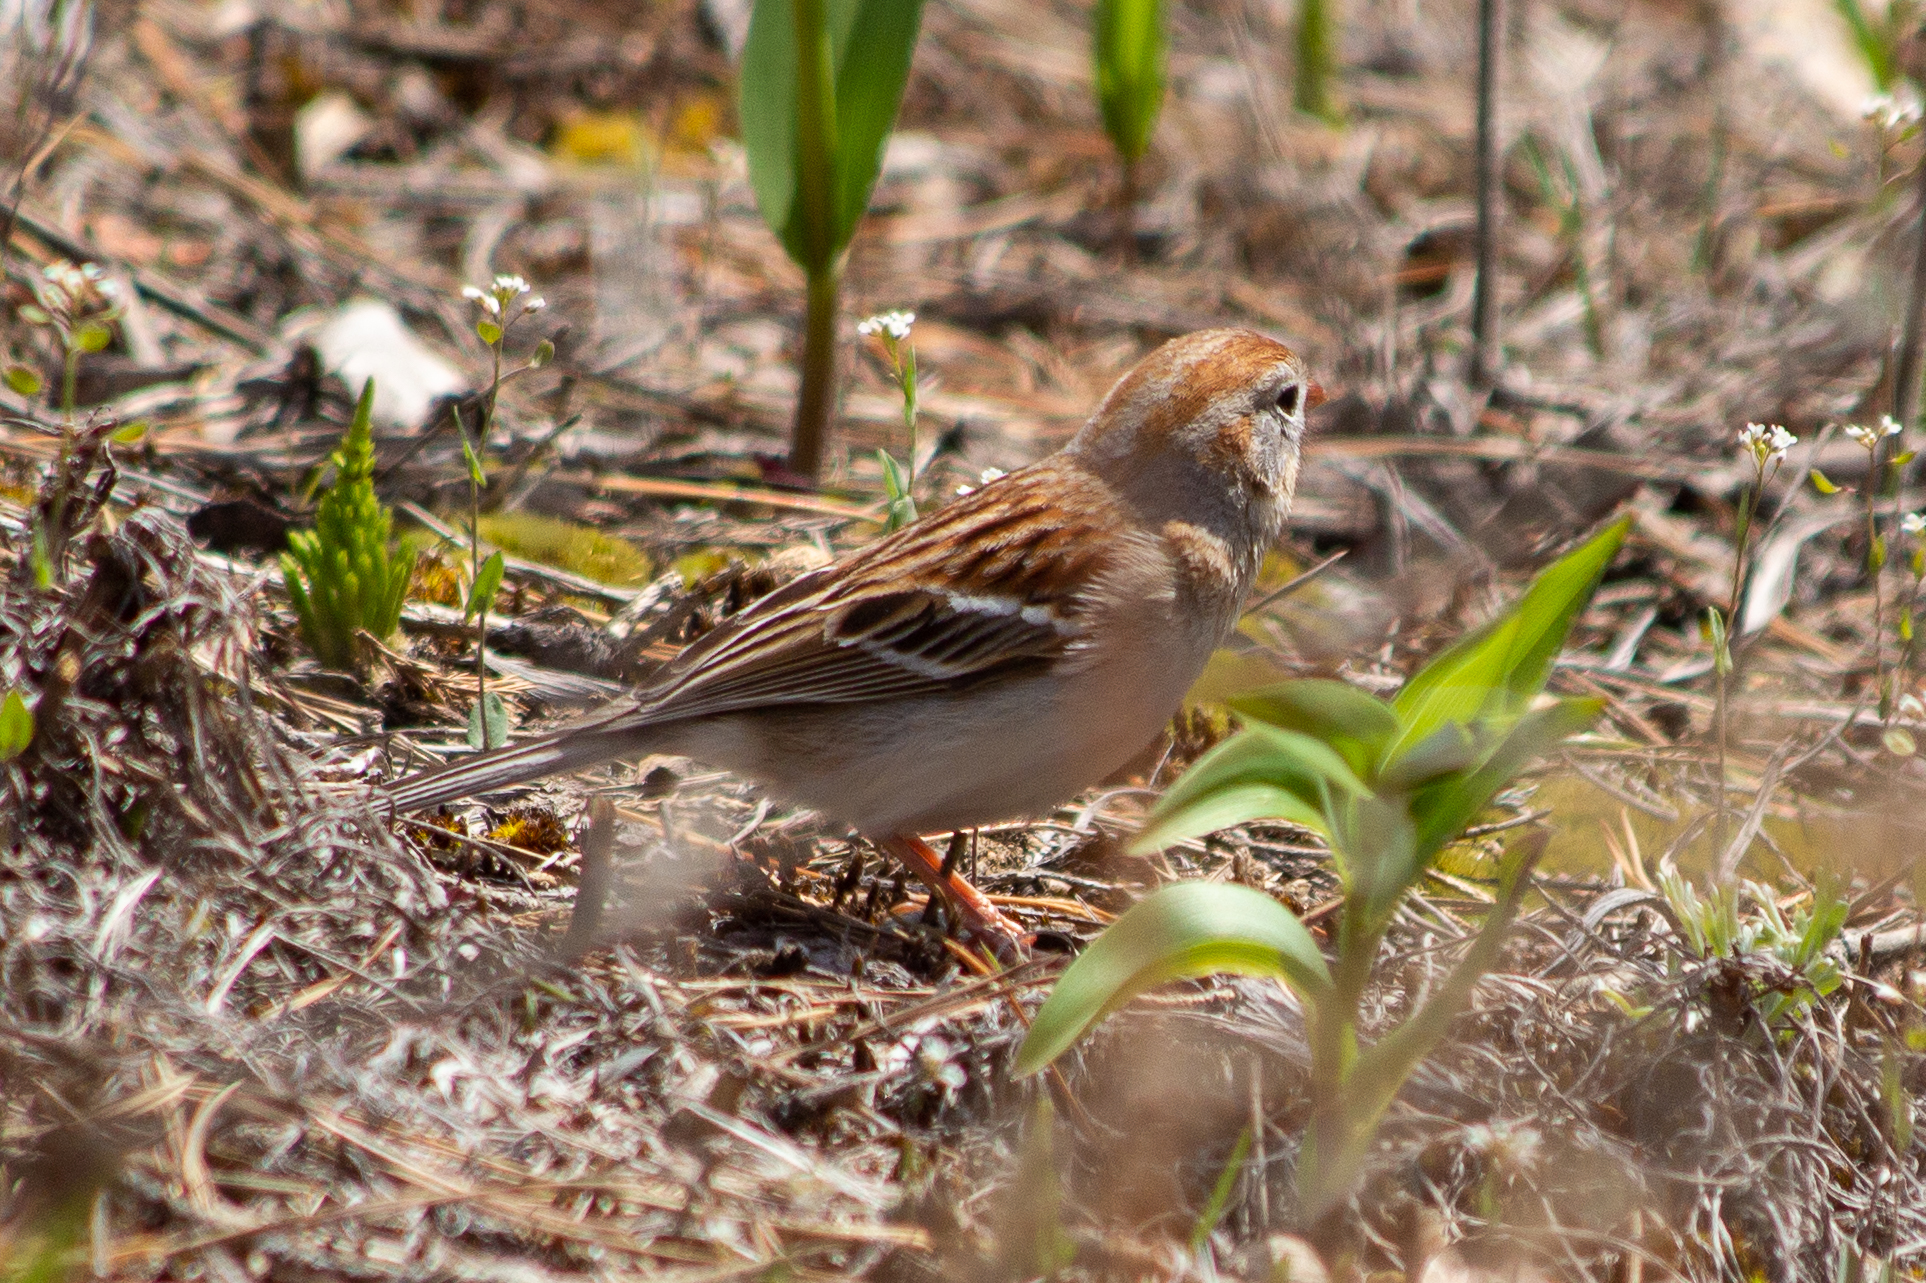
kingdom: Animalia
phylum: Chordata
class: Aves
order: Passeriformes
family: Passerellidae
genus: Spizella
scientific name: Spizella pusilla
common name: Field sparrow
